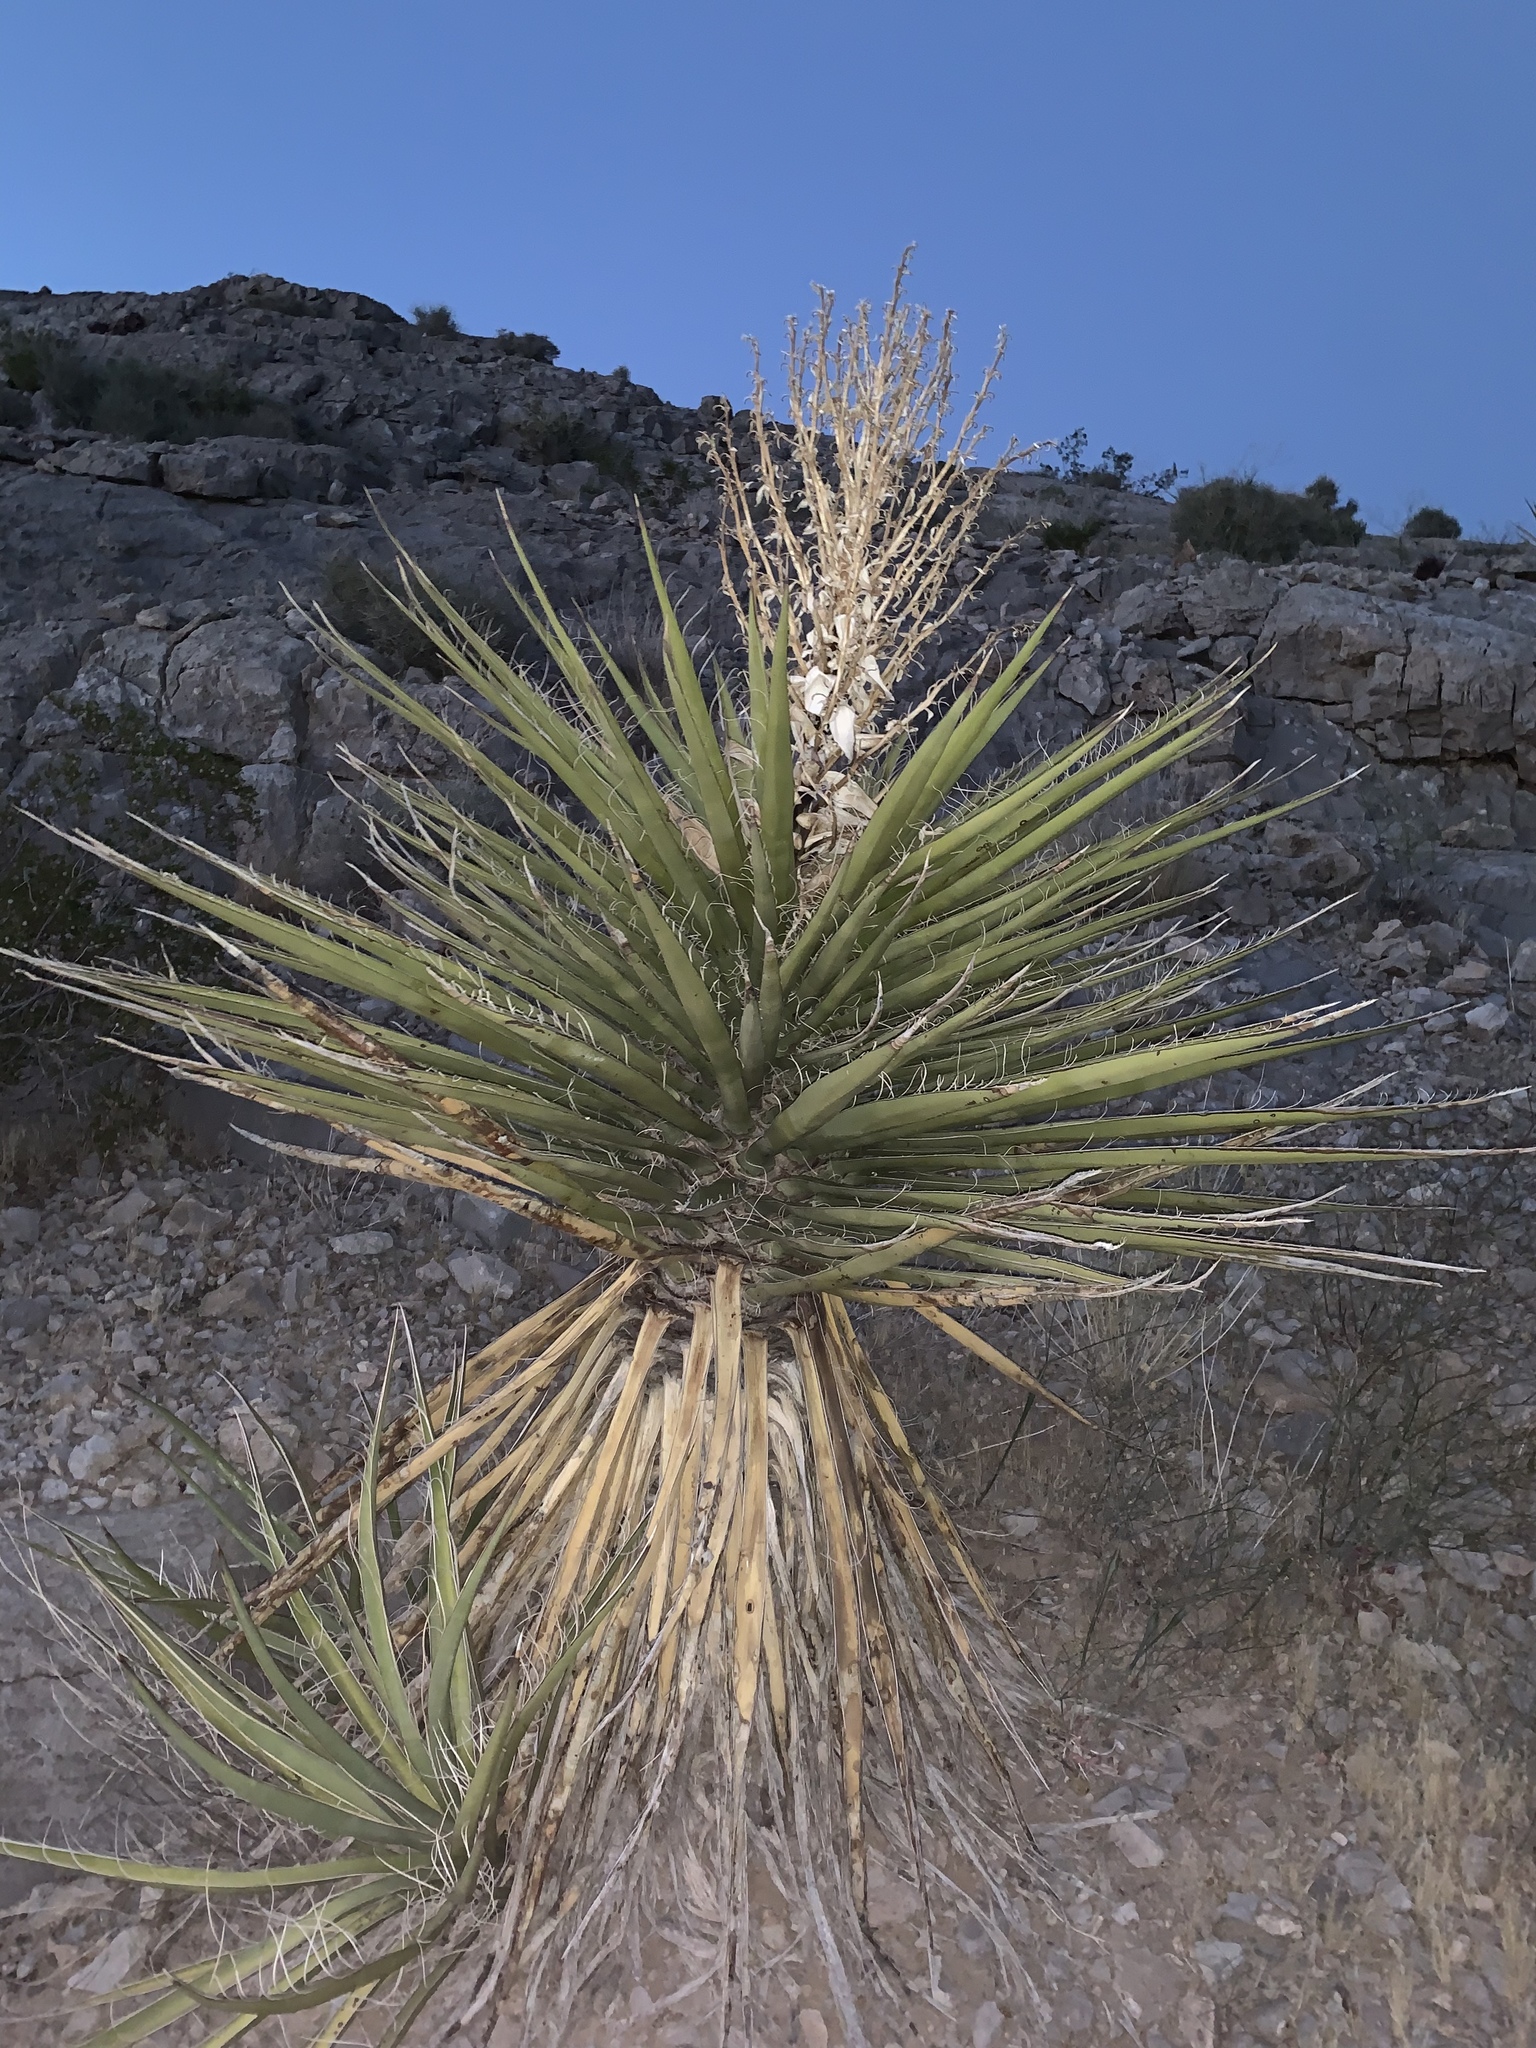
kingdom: Plantae
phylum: Tracheophyta
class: Liliopsida
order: Asparagales
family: Asparagaceae
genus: Yucca
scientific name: Yucca schidigera
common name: Mojave yucca
